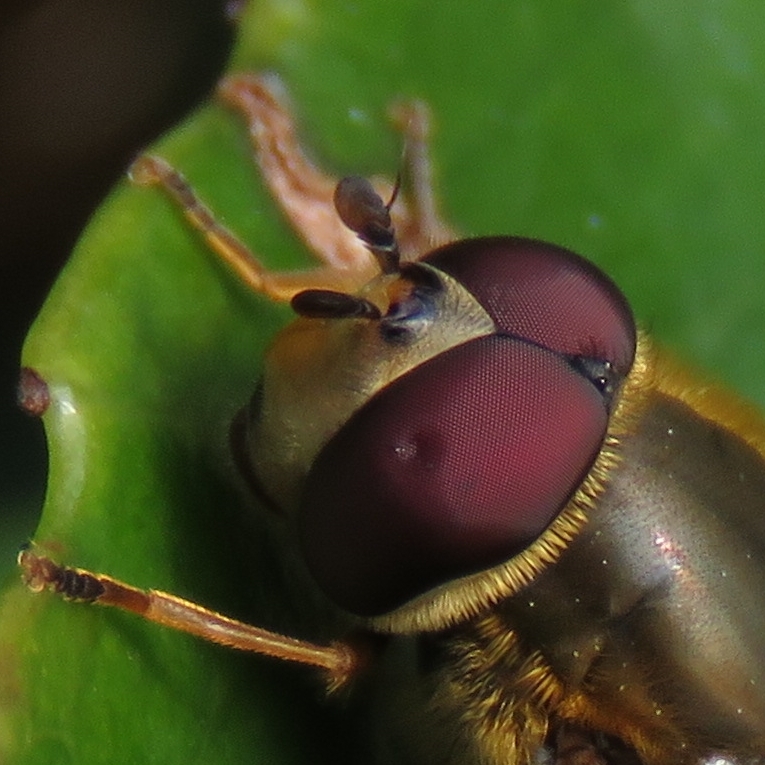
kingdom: Animalia
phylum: Arthropoda
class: Insecta
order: Diptera
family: Syrphidae
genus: Syrphus
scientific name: Syrphus
